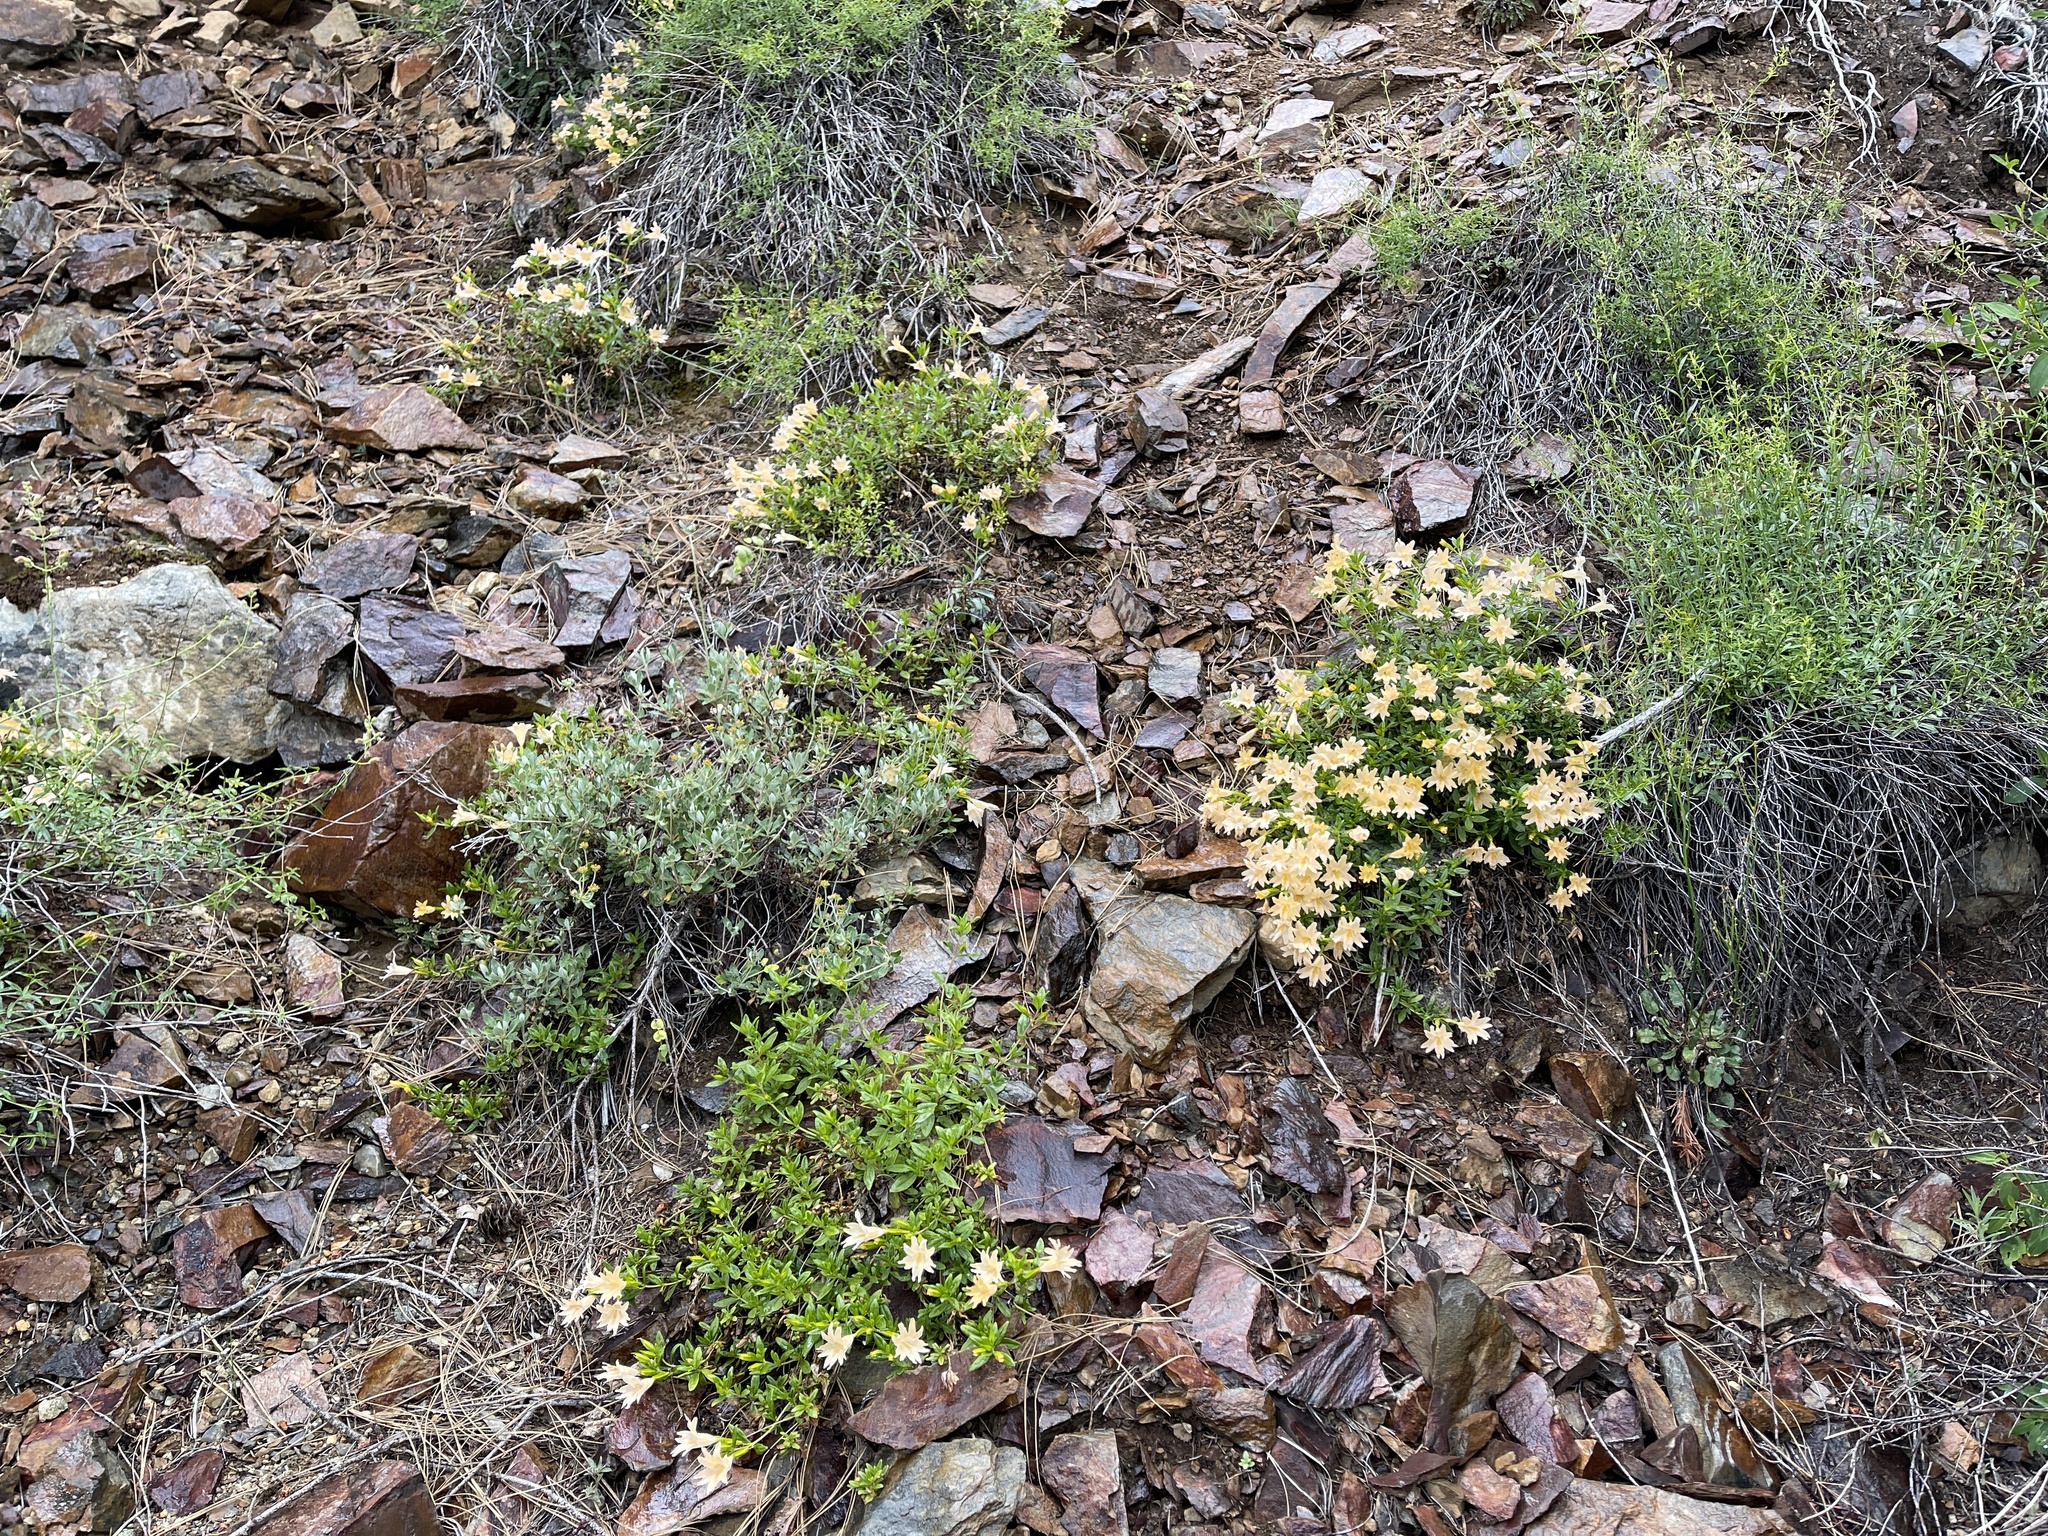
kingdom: Plantae
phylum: Tracheophyta
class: Magnoliopsida
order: Lamiales
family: Phrymaceae
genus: Diplacus
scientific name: Diplacus grandiflorus
